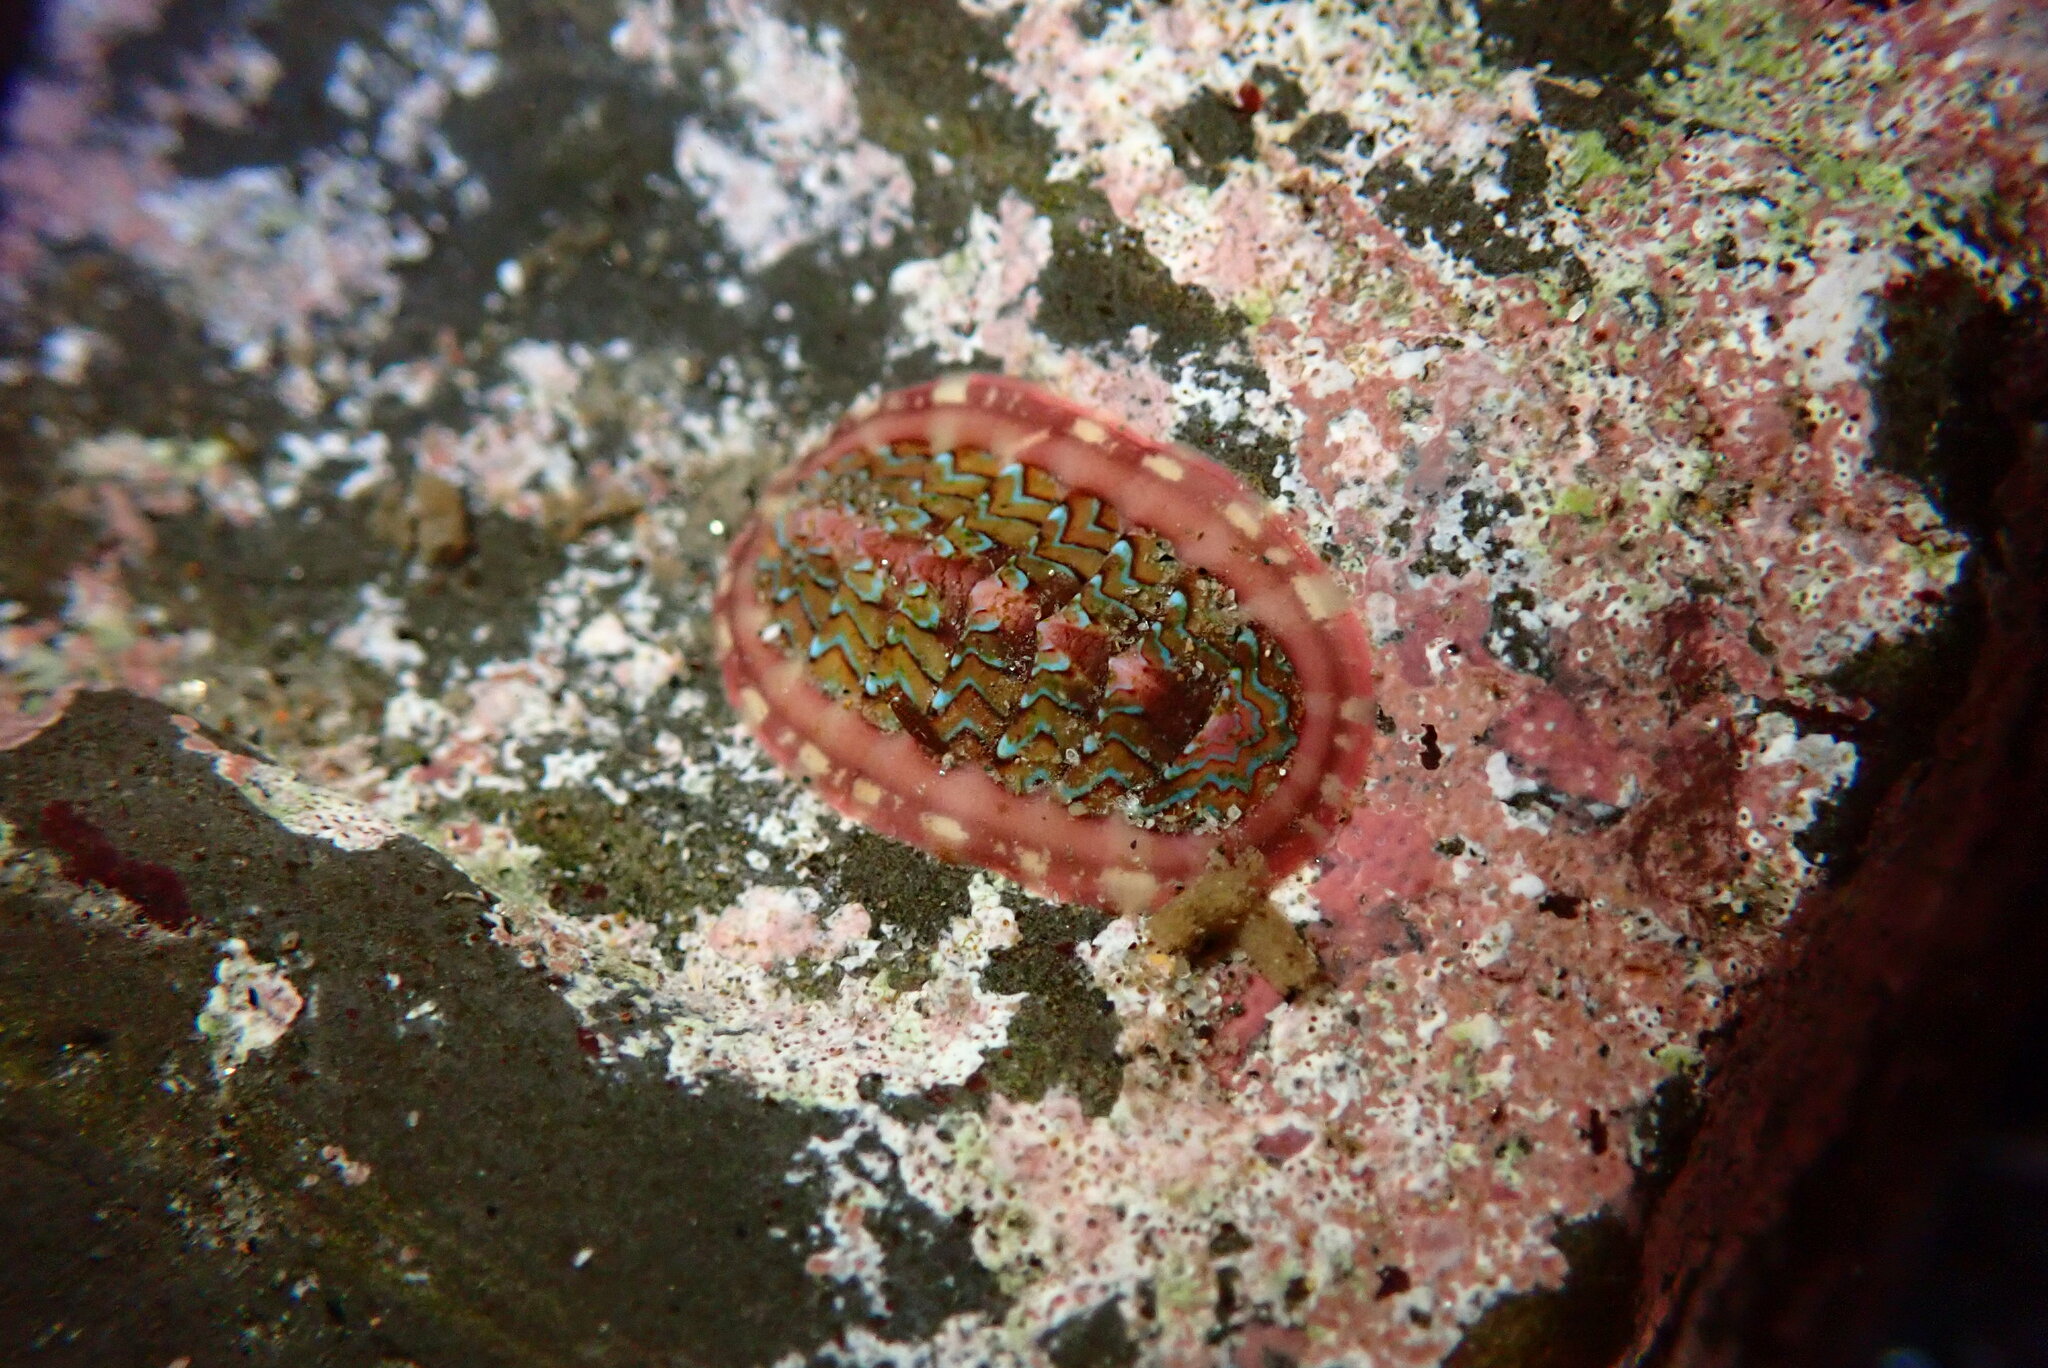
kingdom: Animalia
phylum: Mollusca
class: Polyplacophora
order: Chitonida
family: Tonicellidae
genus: Tonicella
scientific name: Tonicella lokii
